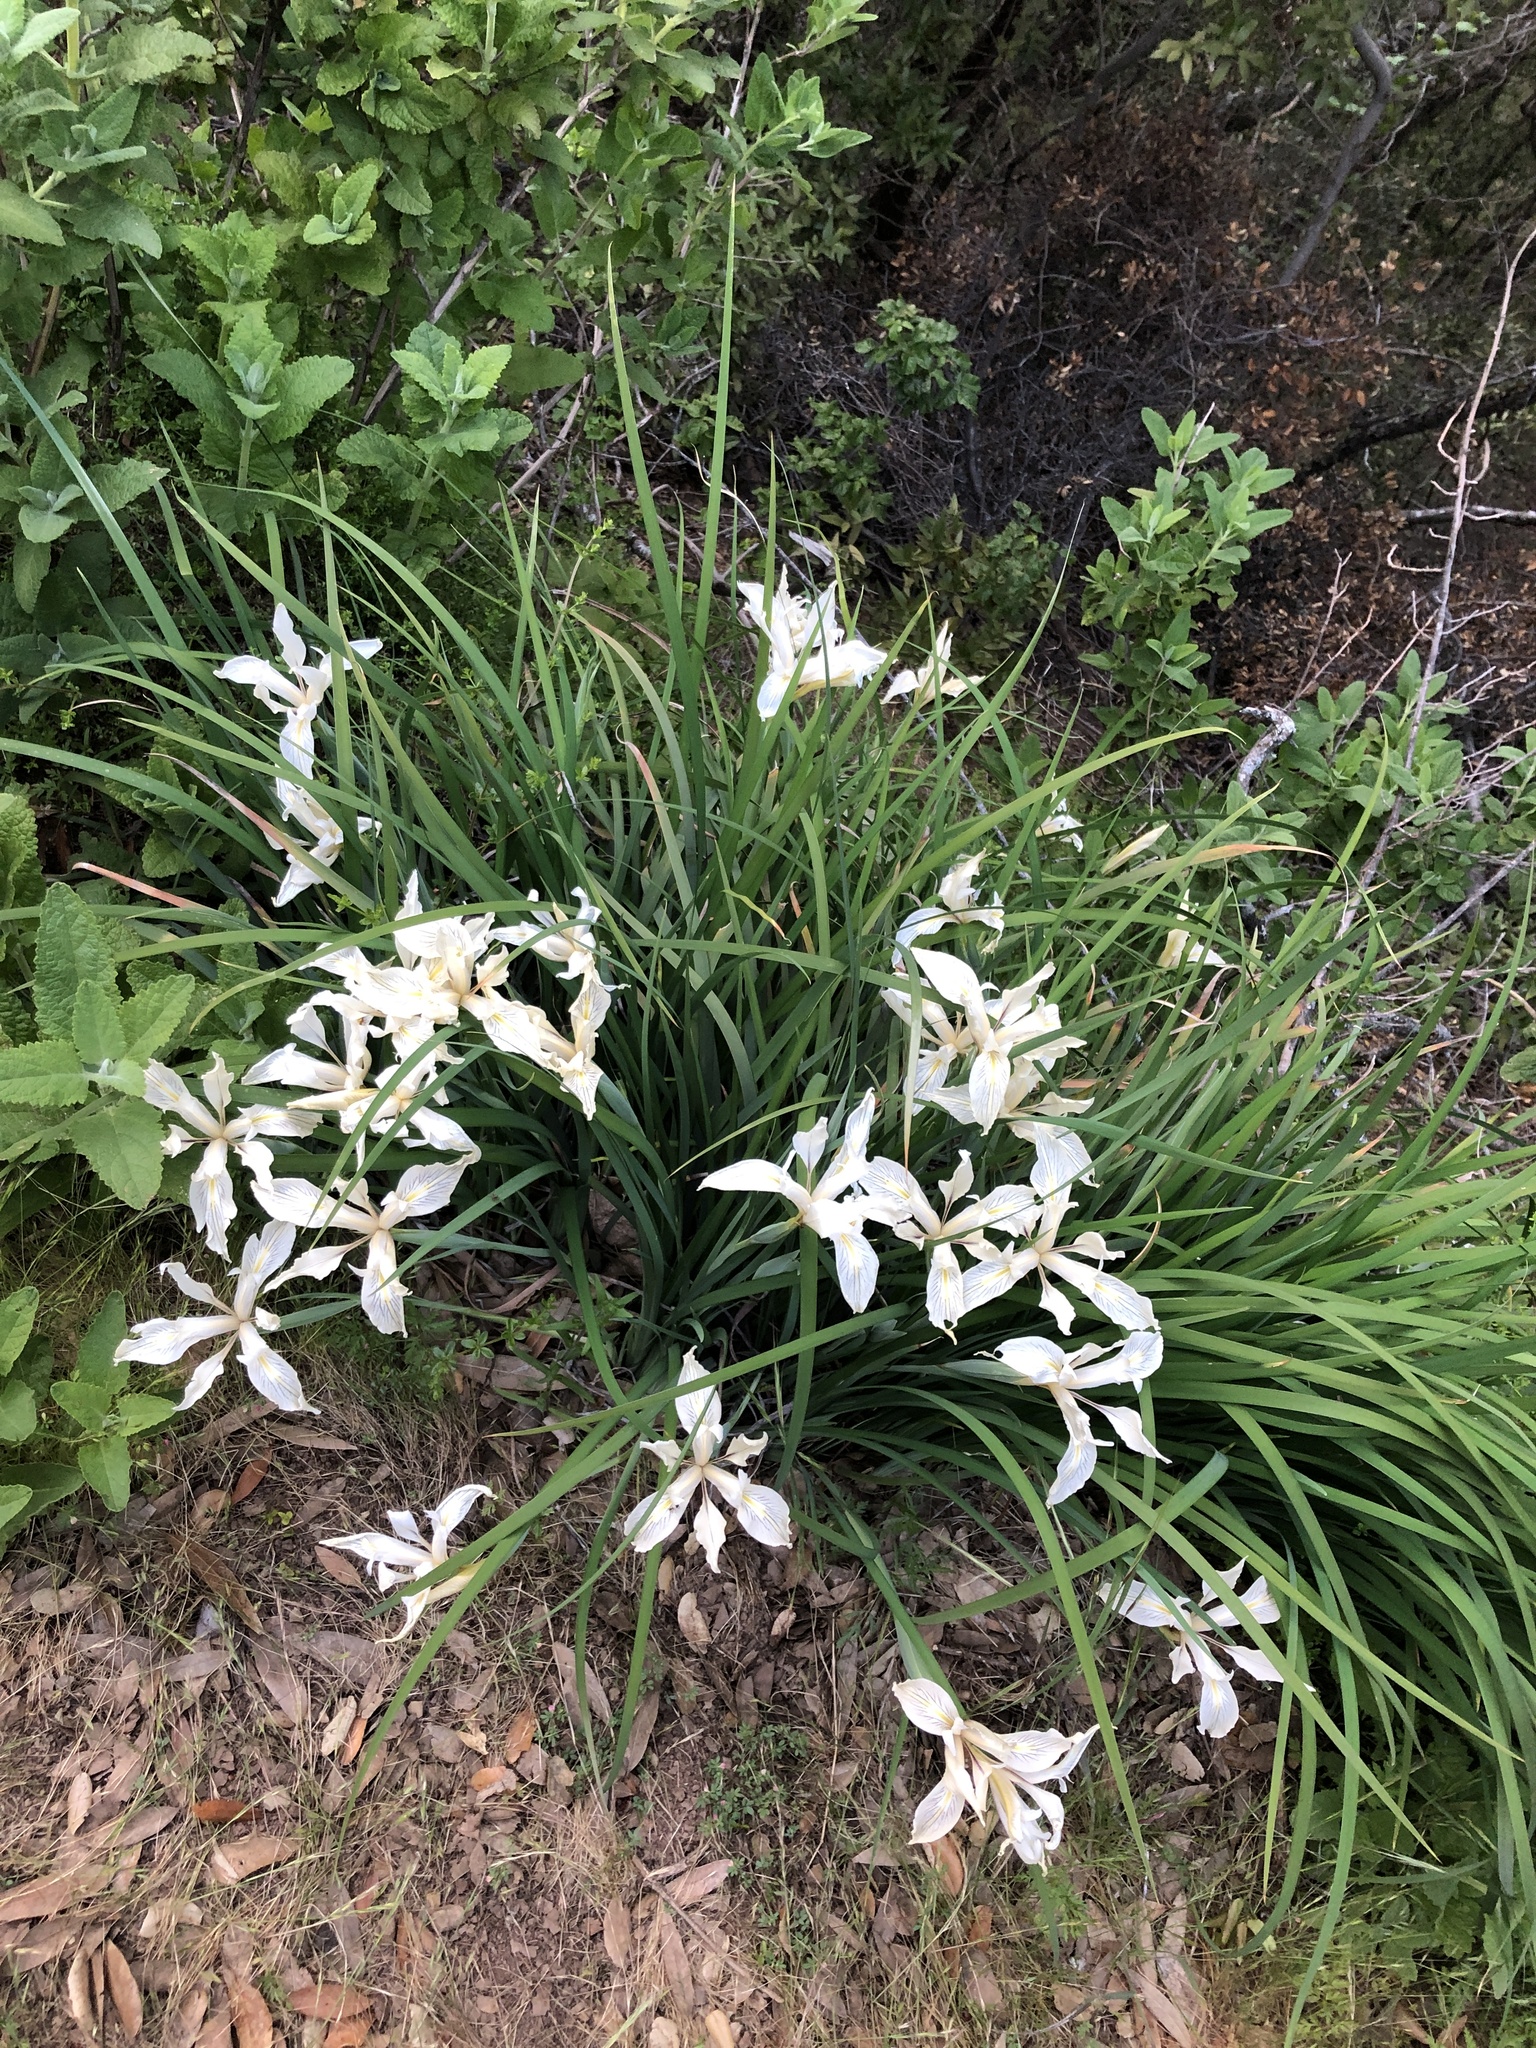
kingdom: Plantae
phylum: Tracheophyta
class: Liliopsida
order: Asparagales
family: Iridaceae
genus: Iris
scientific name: Iris fernaldii
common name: Fernald's iris
